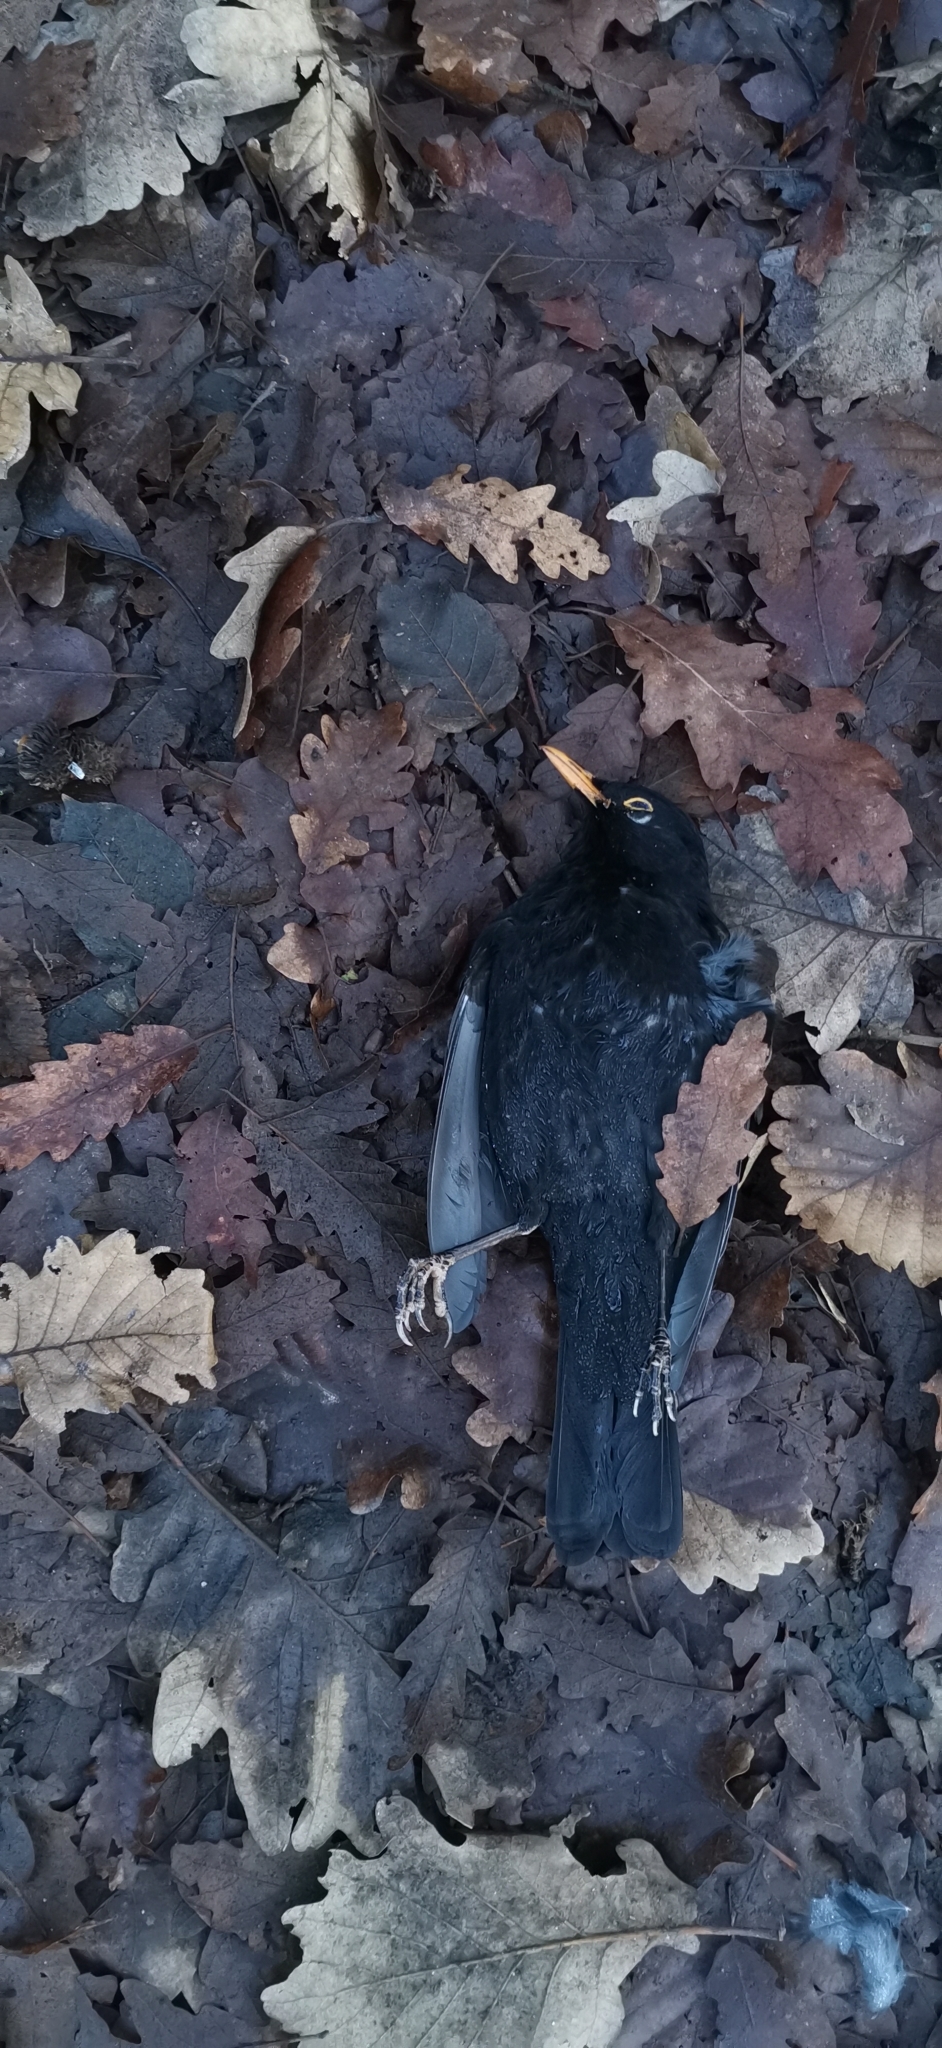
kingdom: Animalia
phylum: Chordata
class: Aves
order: Passeriformes
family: Turdidae
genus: Turdus
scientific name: Turdus merula
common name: Common blackbird
